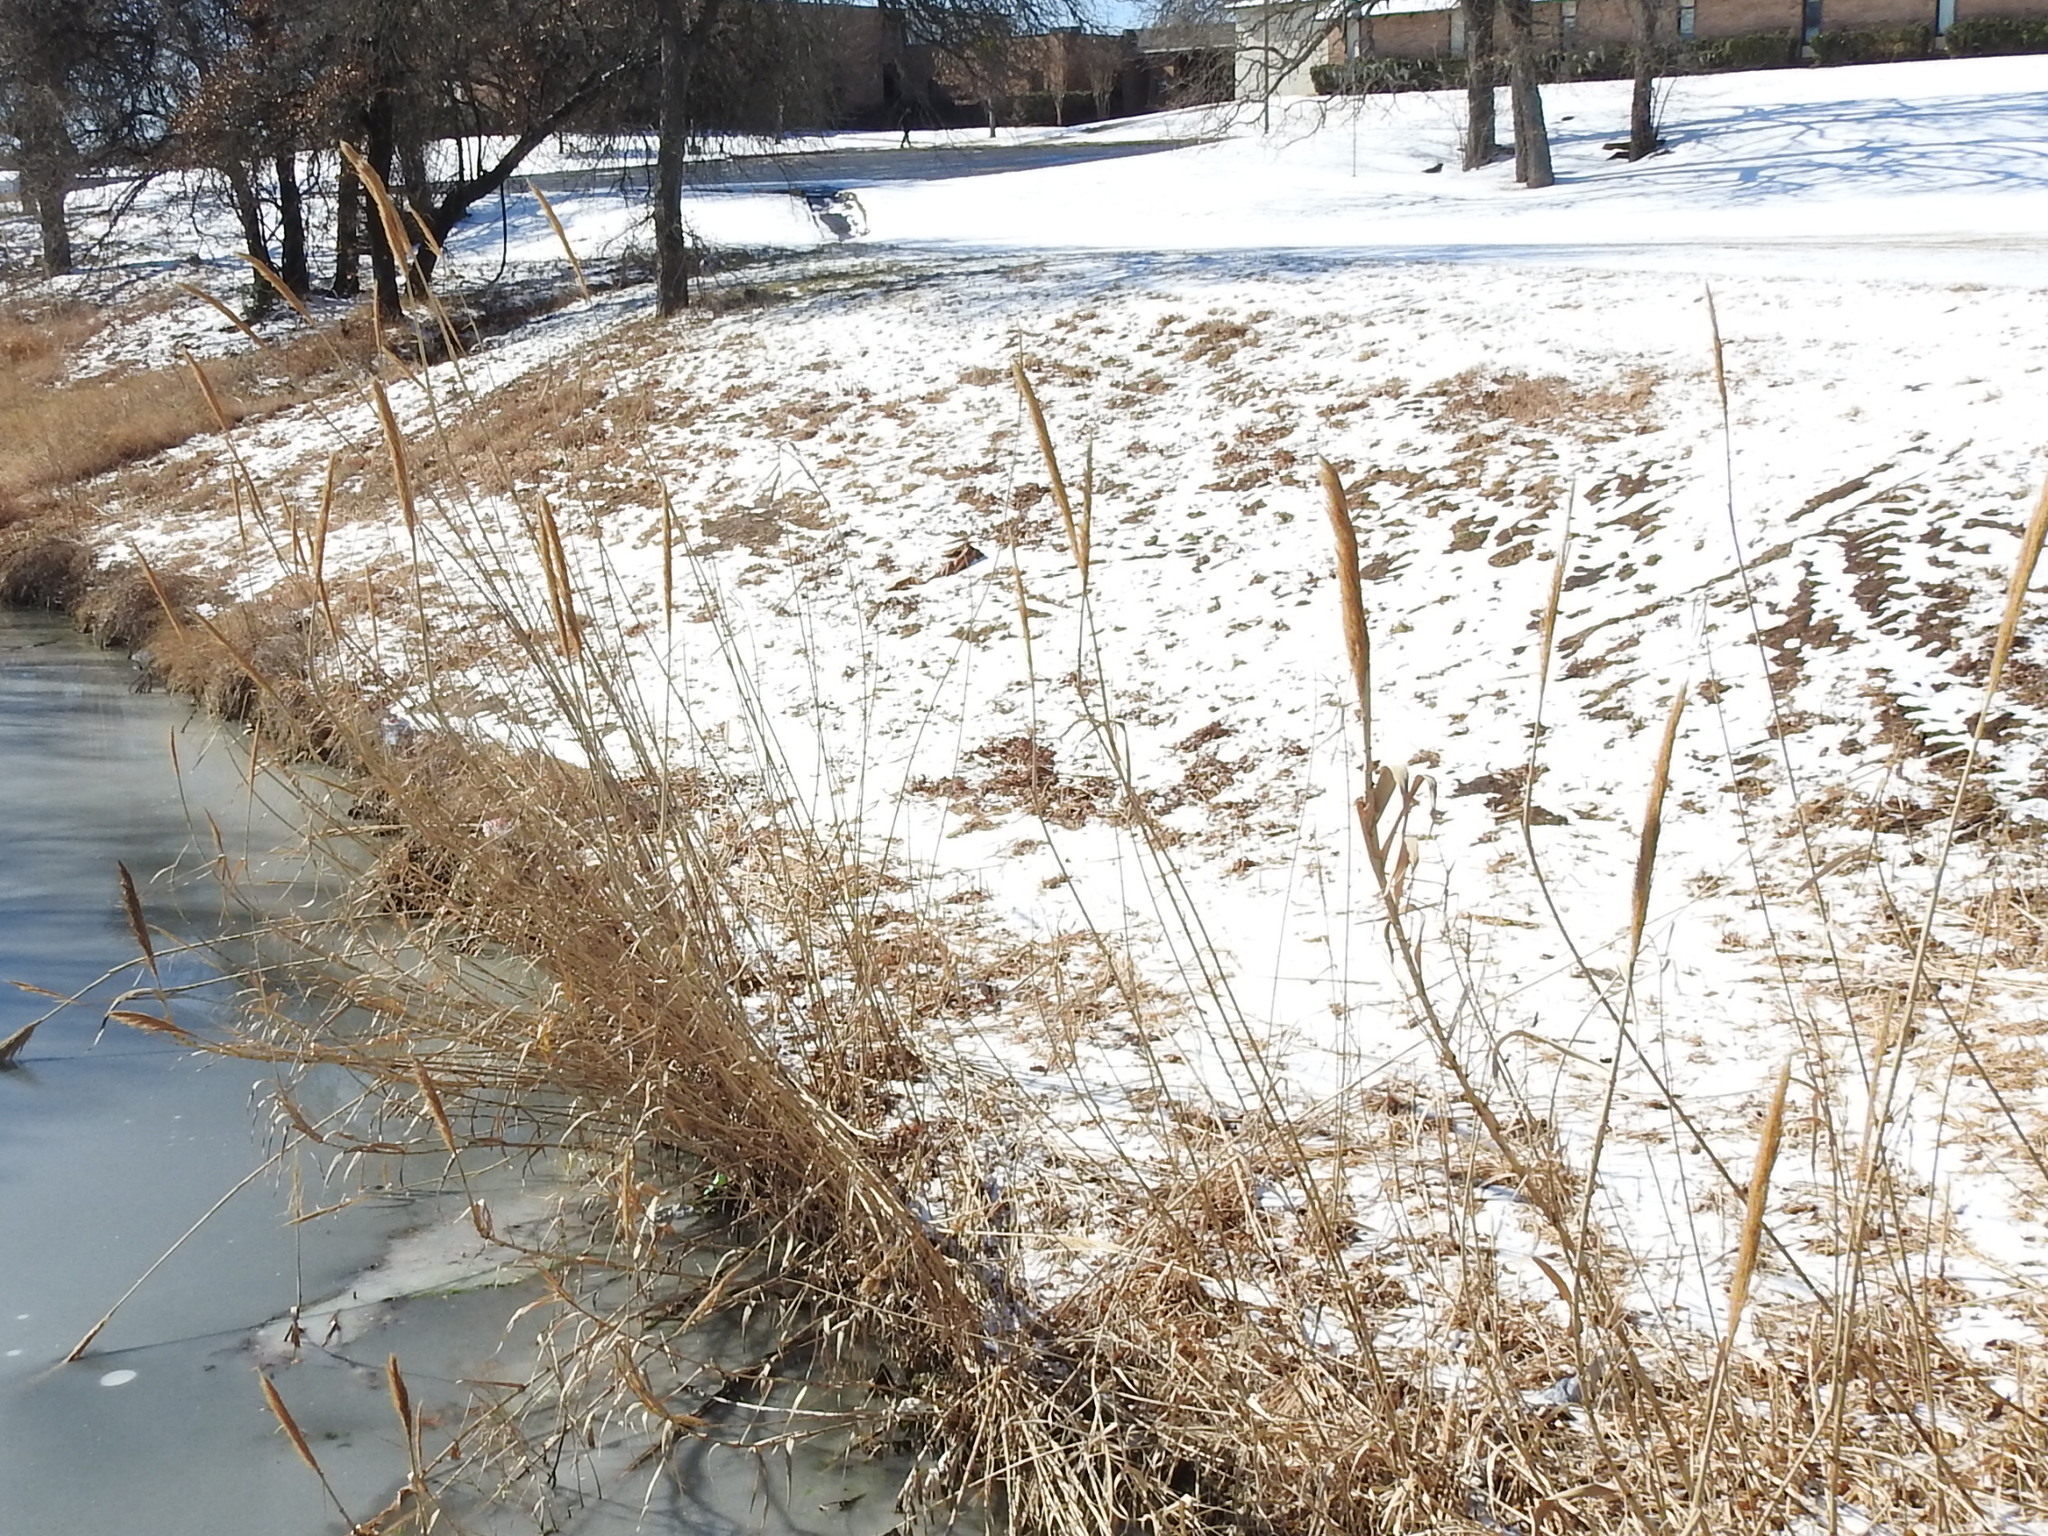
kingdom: Plantae
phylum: Tracheophyta
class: Liliopsida
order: Poales
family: Poaceae
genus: Arundo
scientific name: Arundo donax
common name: Giant reed
